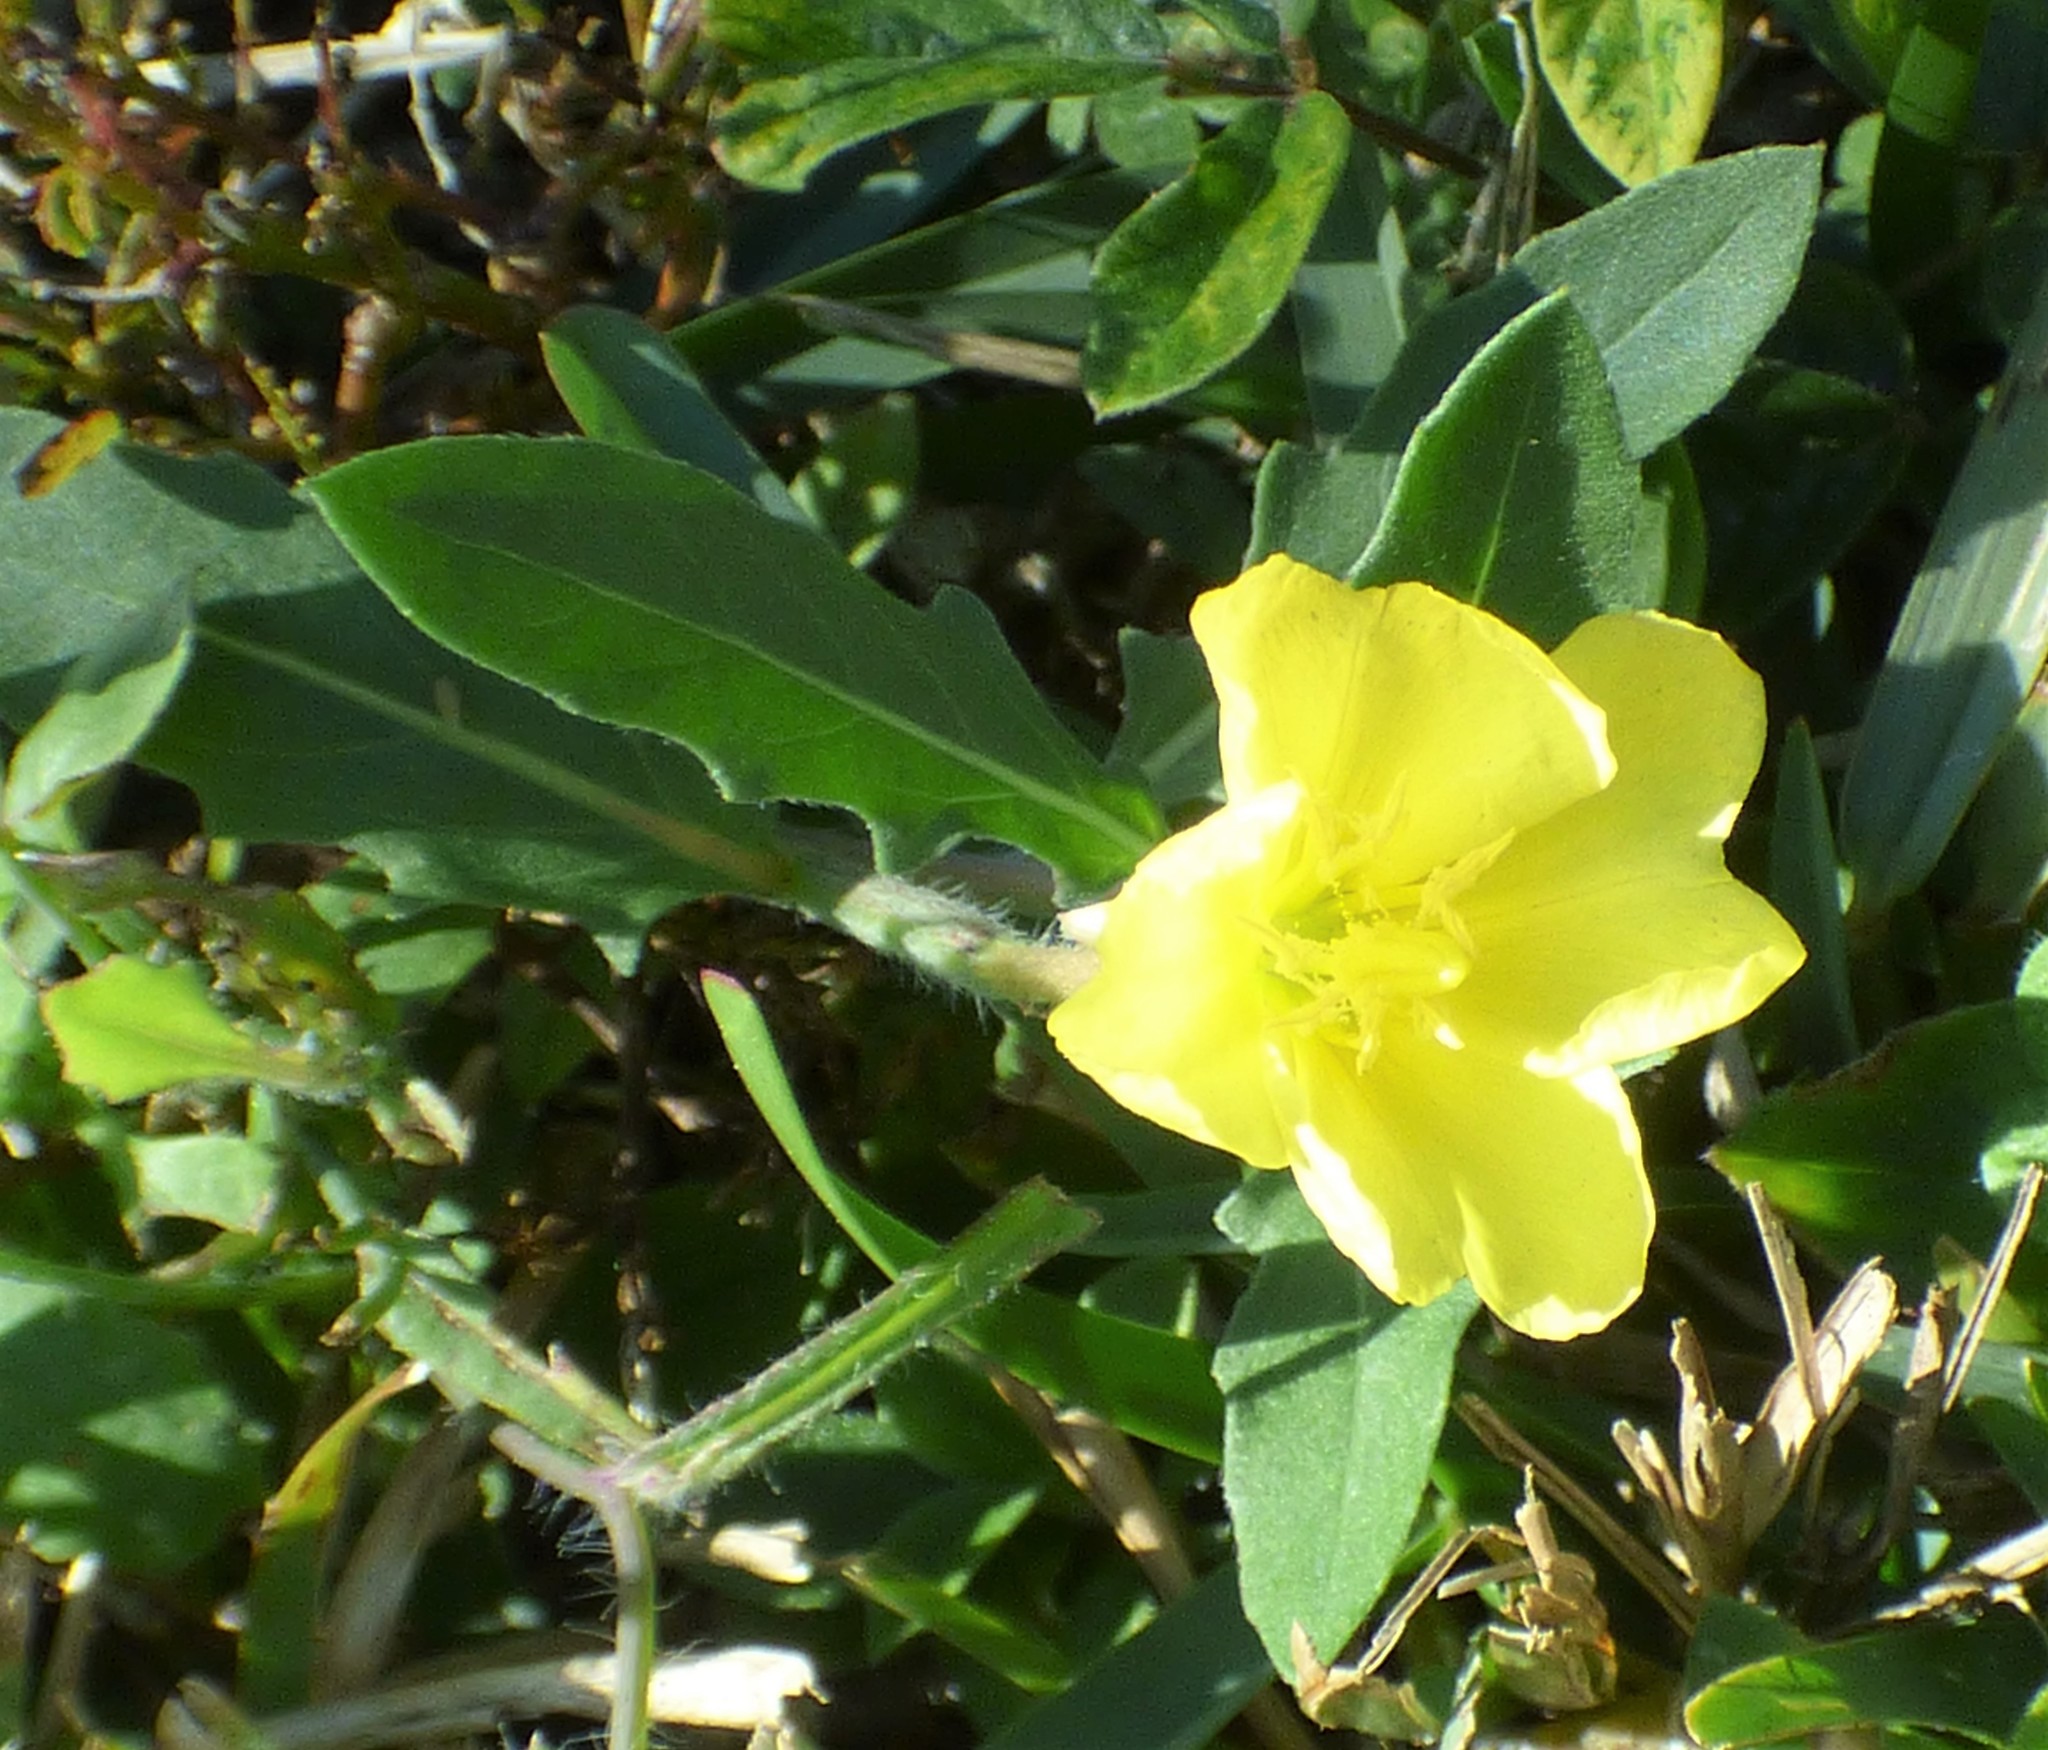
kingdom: Plantae
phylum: Tracheophyta
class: Magnoliopsida
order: Myrtales
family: Onagraceae
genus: Oenothera
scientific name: Oenothera laciniata
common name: Cut-leaved evening-primrose
